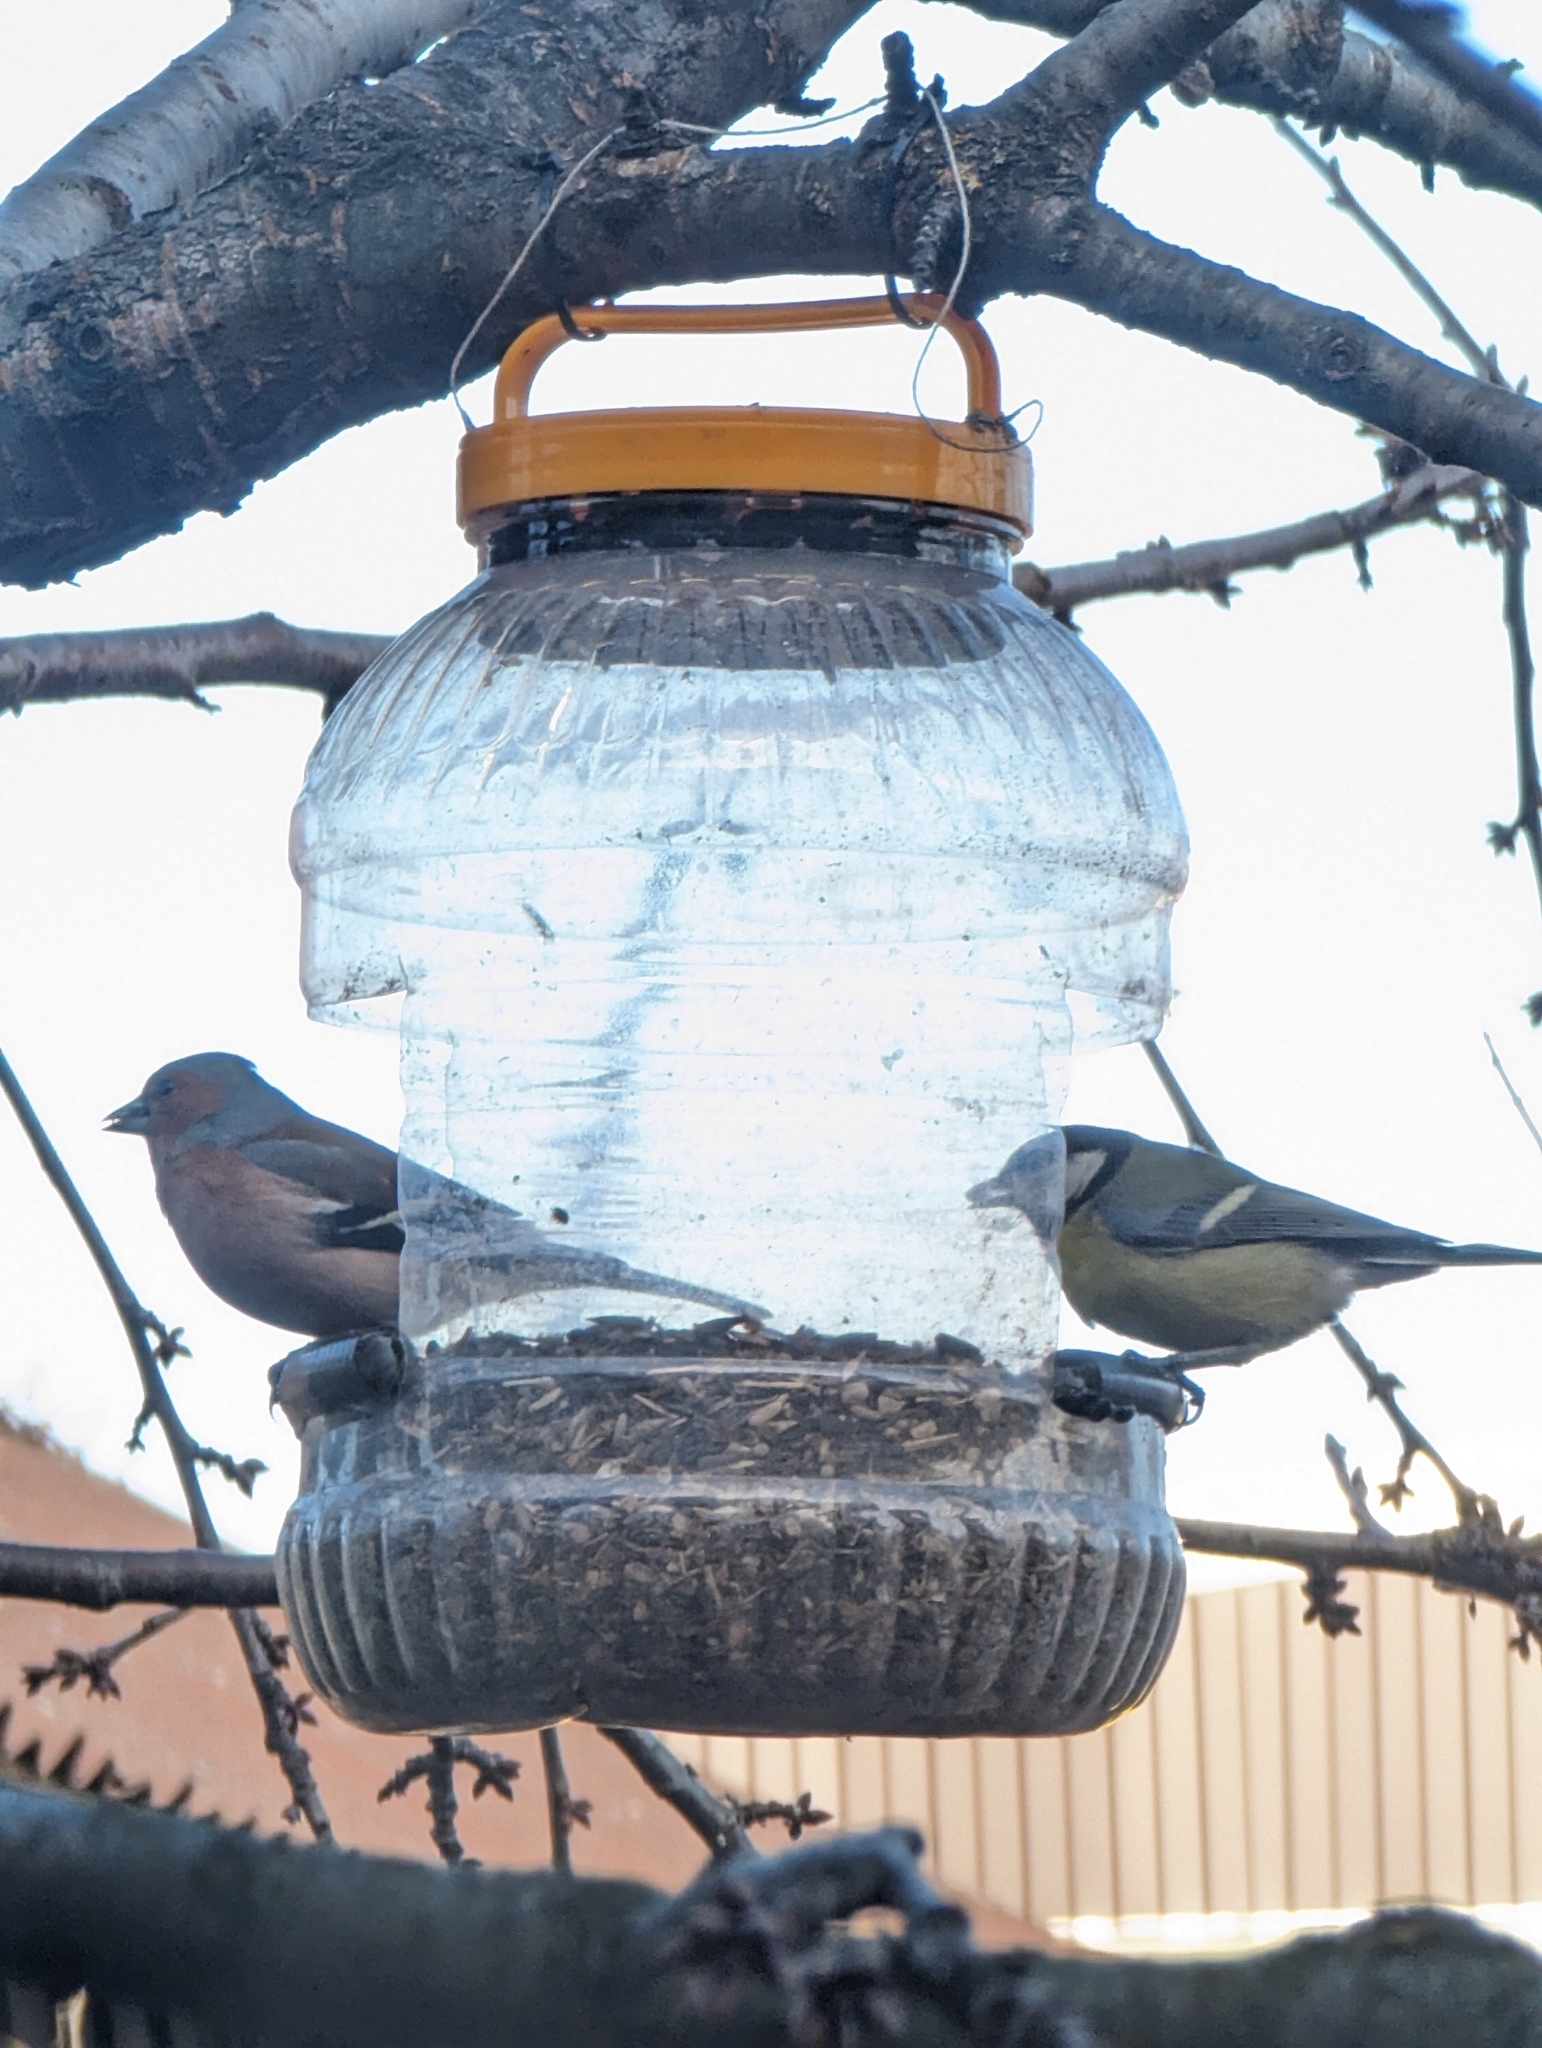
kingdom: Animalia
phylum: Chordata
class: Aves
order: Passeriformes
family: Paridae
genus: Parus
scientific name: Parus major
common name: Great tit
